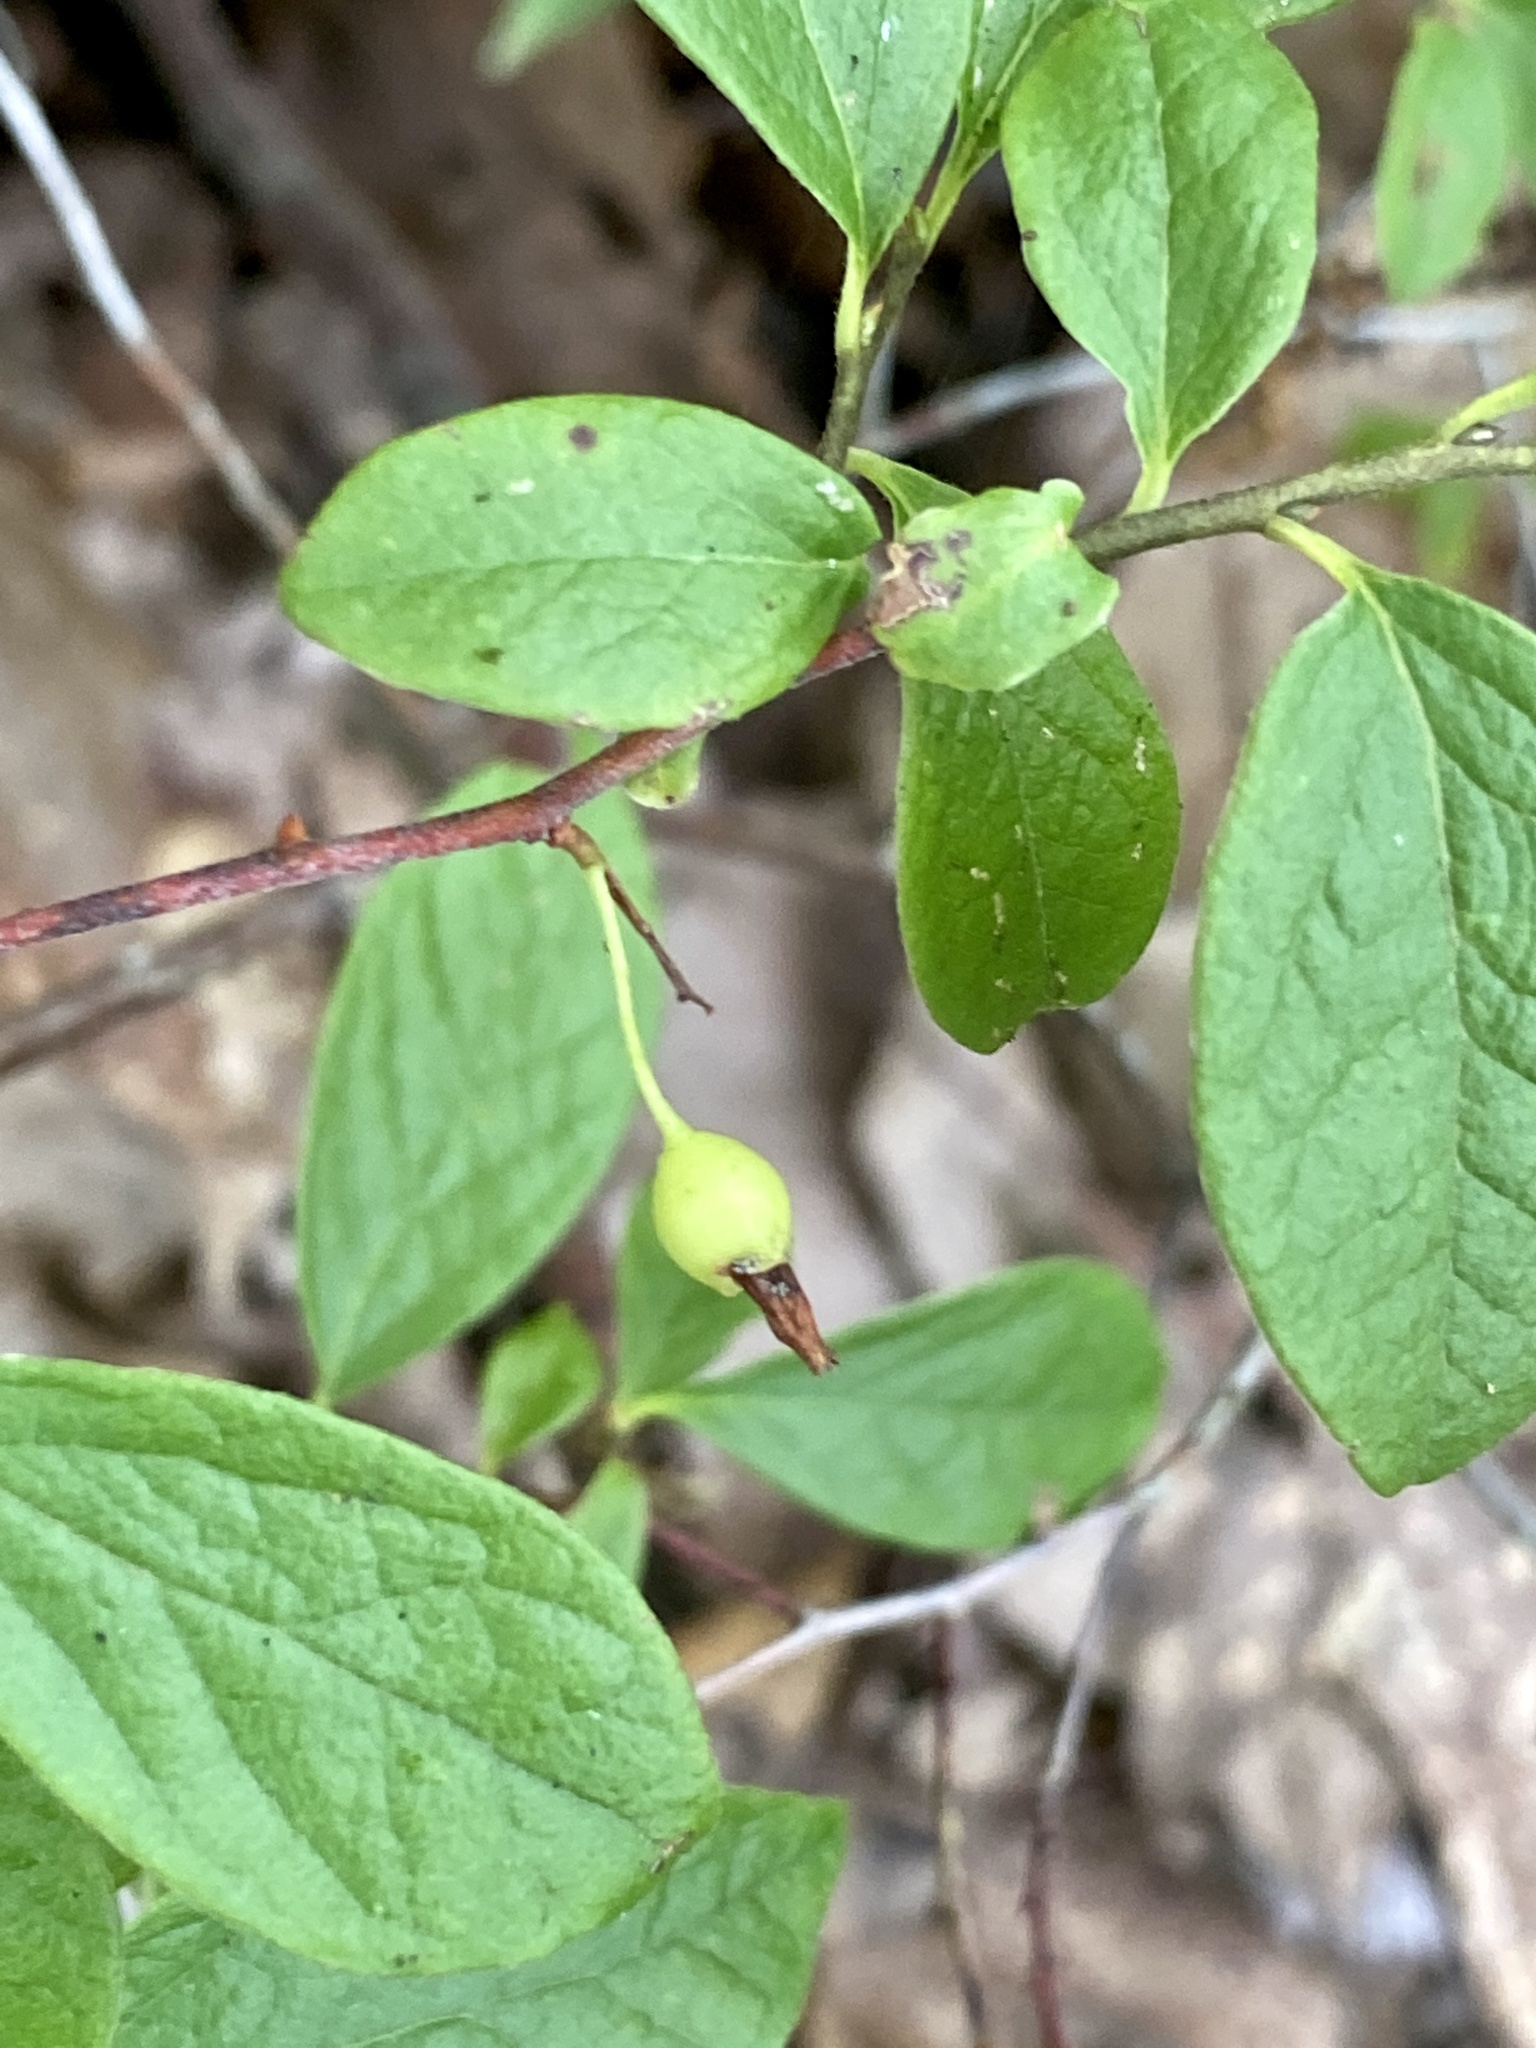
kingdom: Plantae
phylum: Tracheophyta
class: Magnoliopsida
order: Ericales
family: Ericaceae
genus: Gaylussacia
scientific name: Gaylussacia baccata
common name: Black huckleberry
